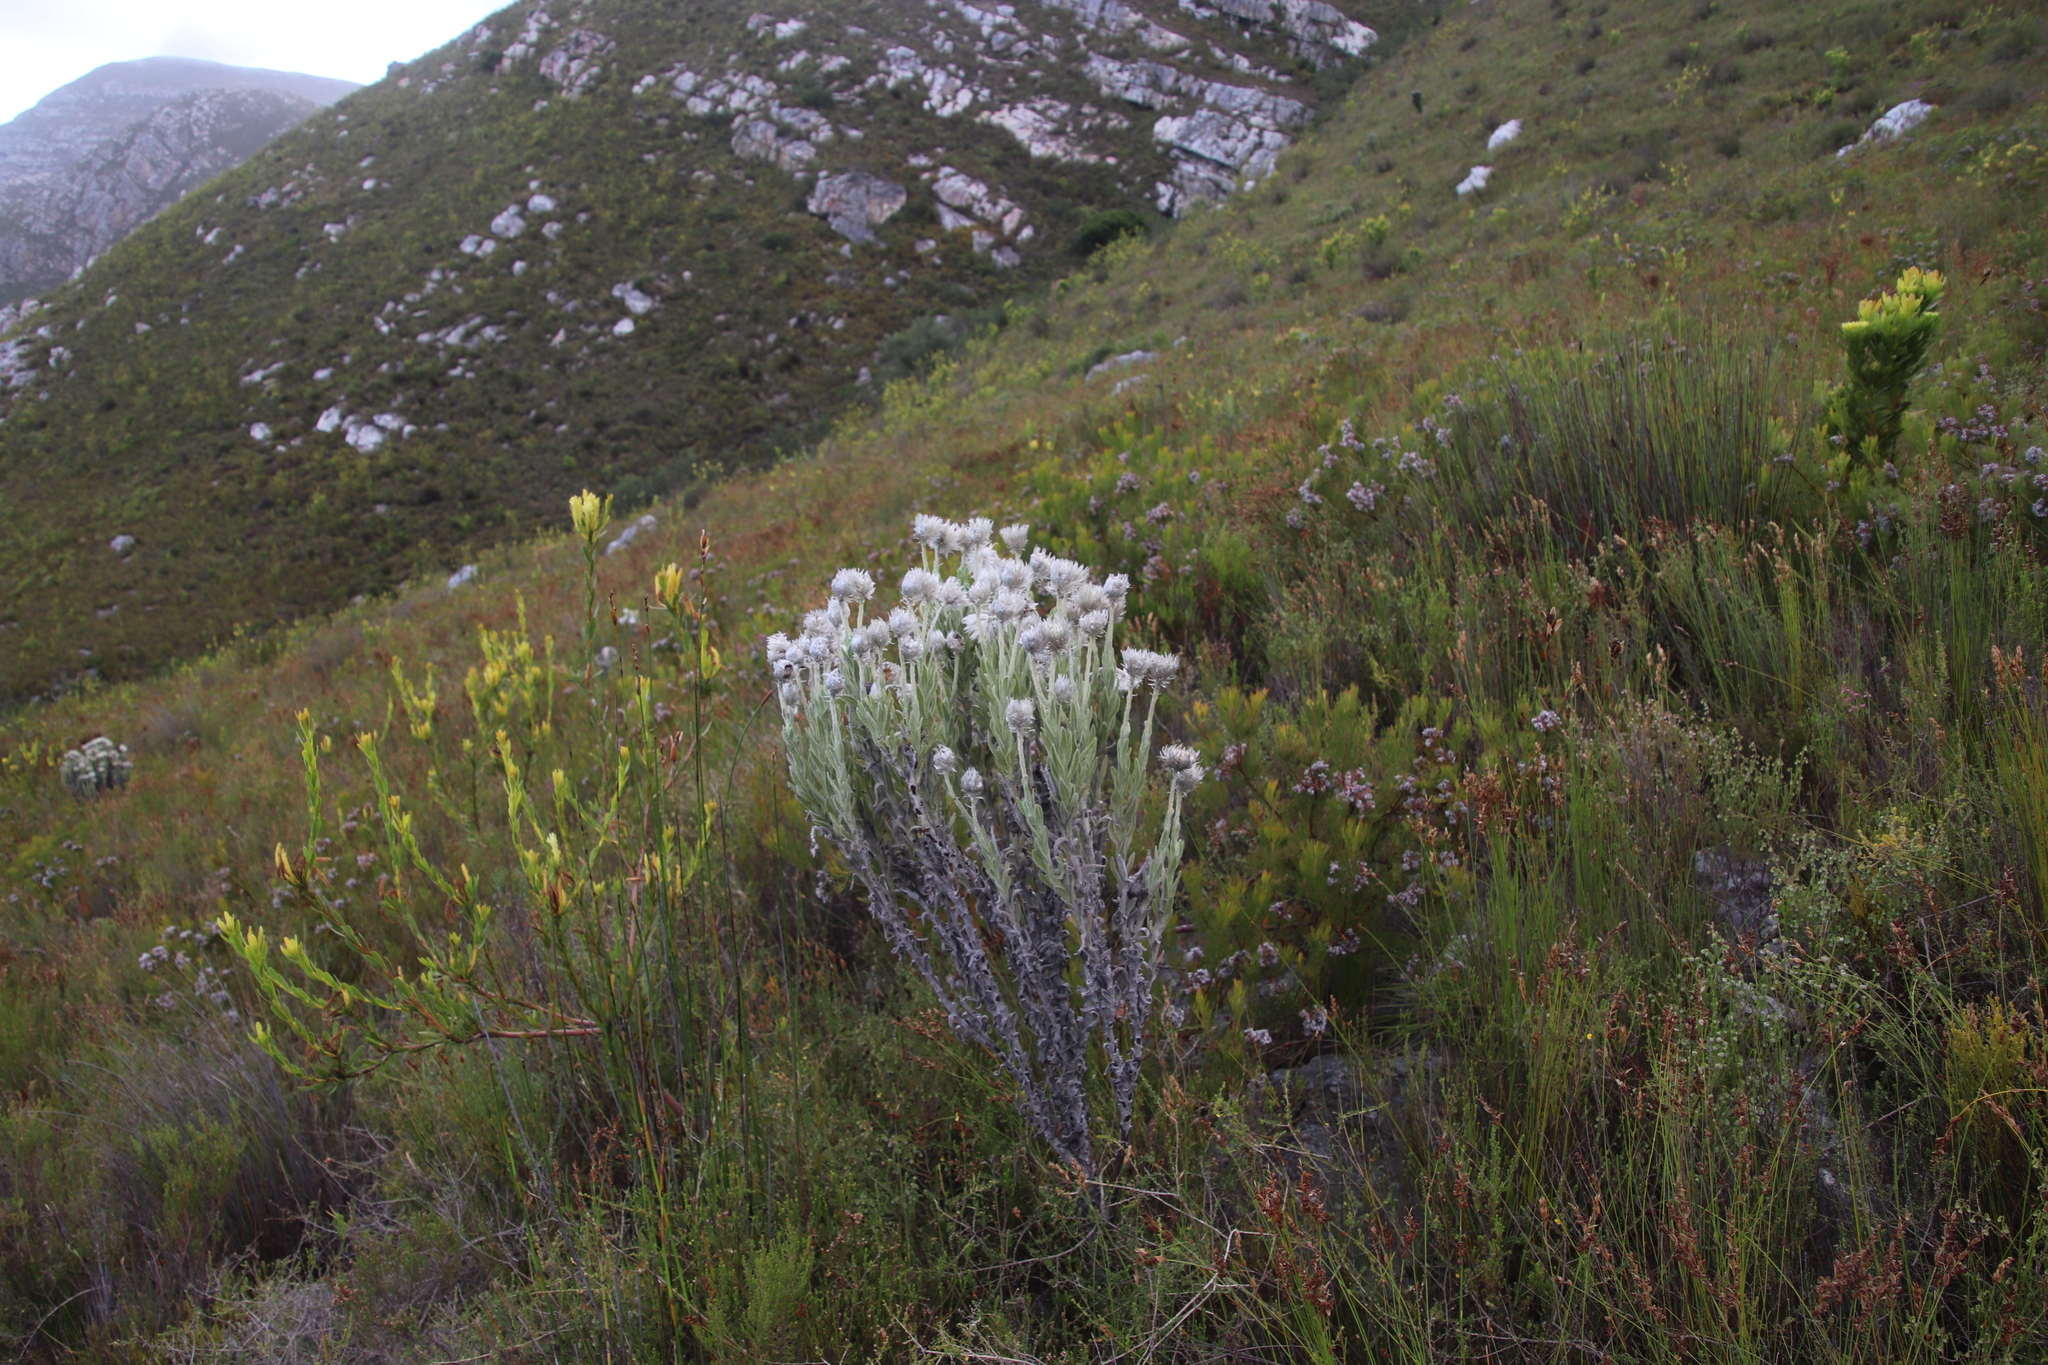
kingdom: Plantae
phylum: Tracheophyta
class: Magnoliopsida
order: Asterales
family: Asteraceae
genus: Syncarpha
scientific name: Syncarpha vestita
